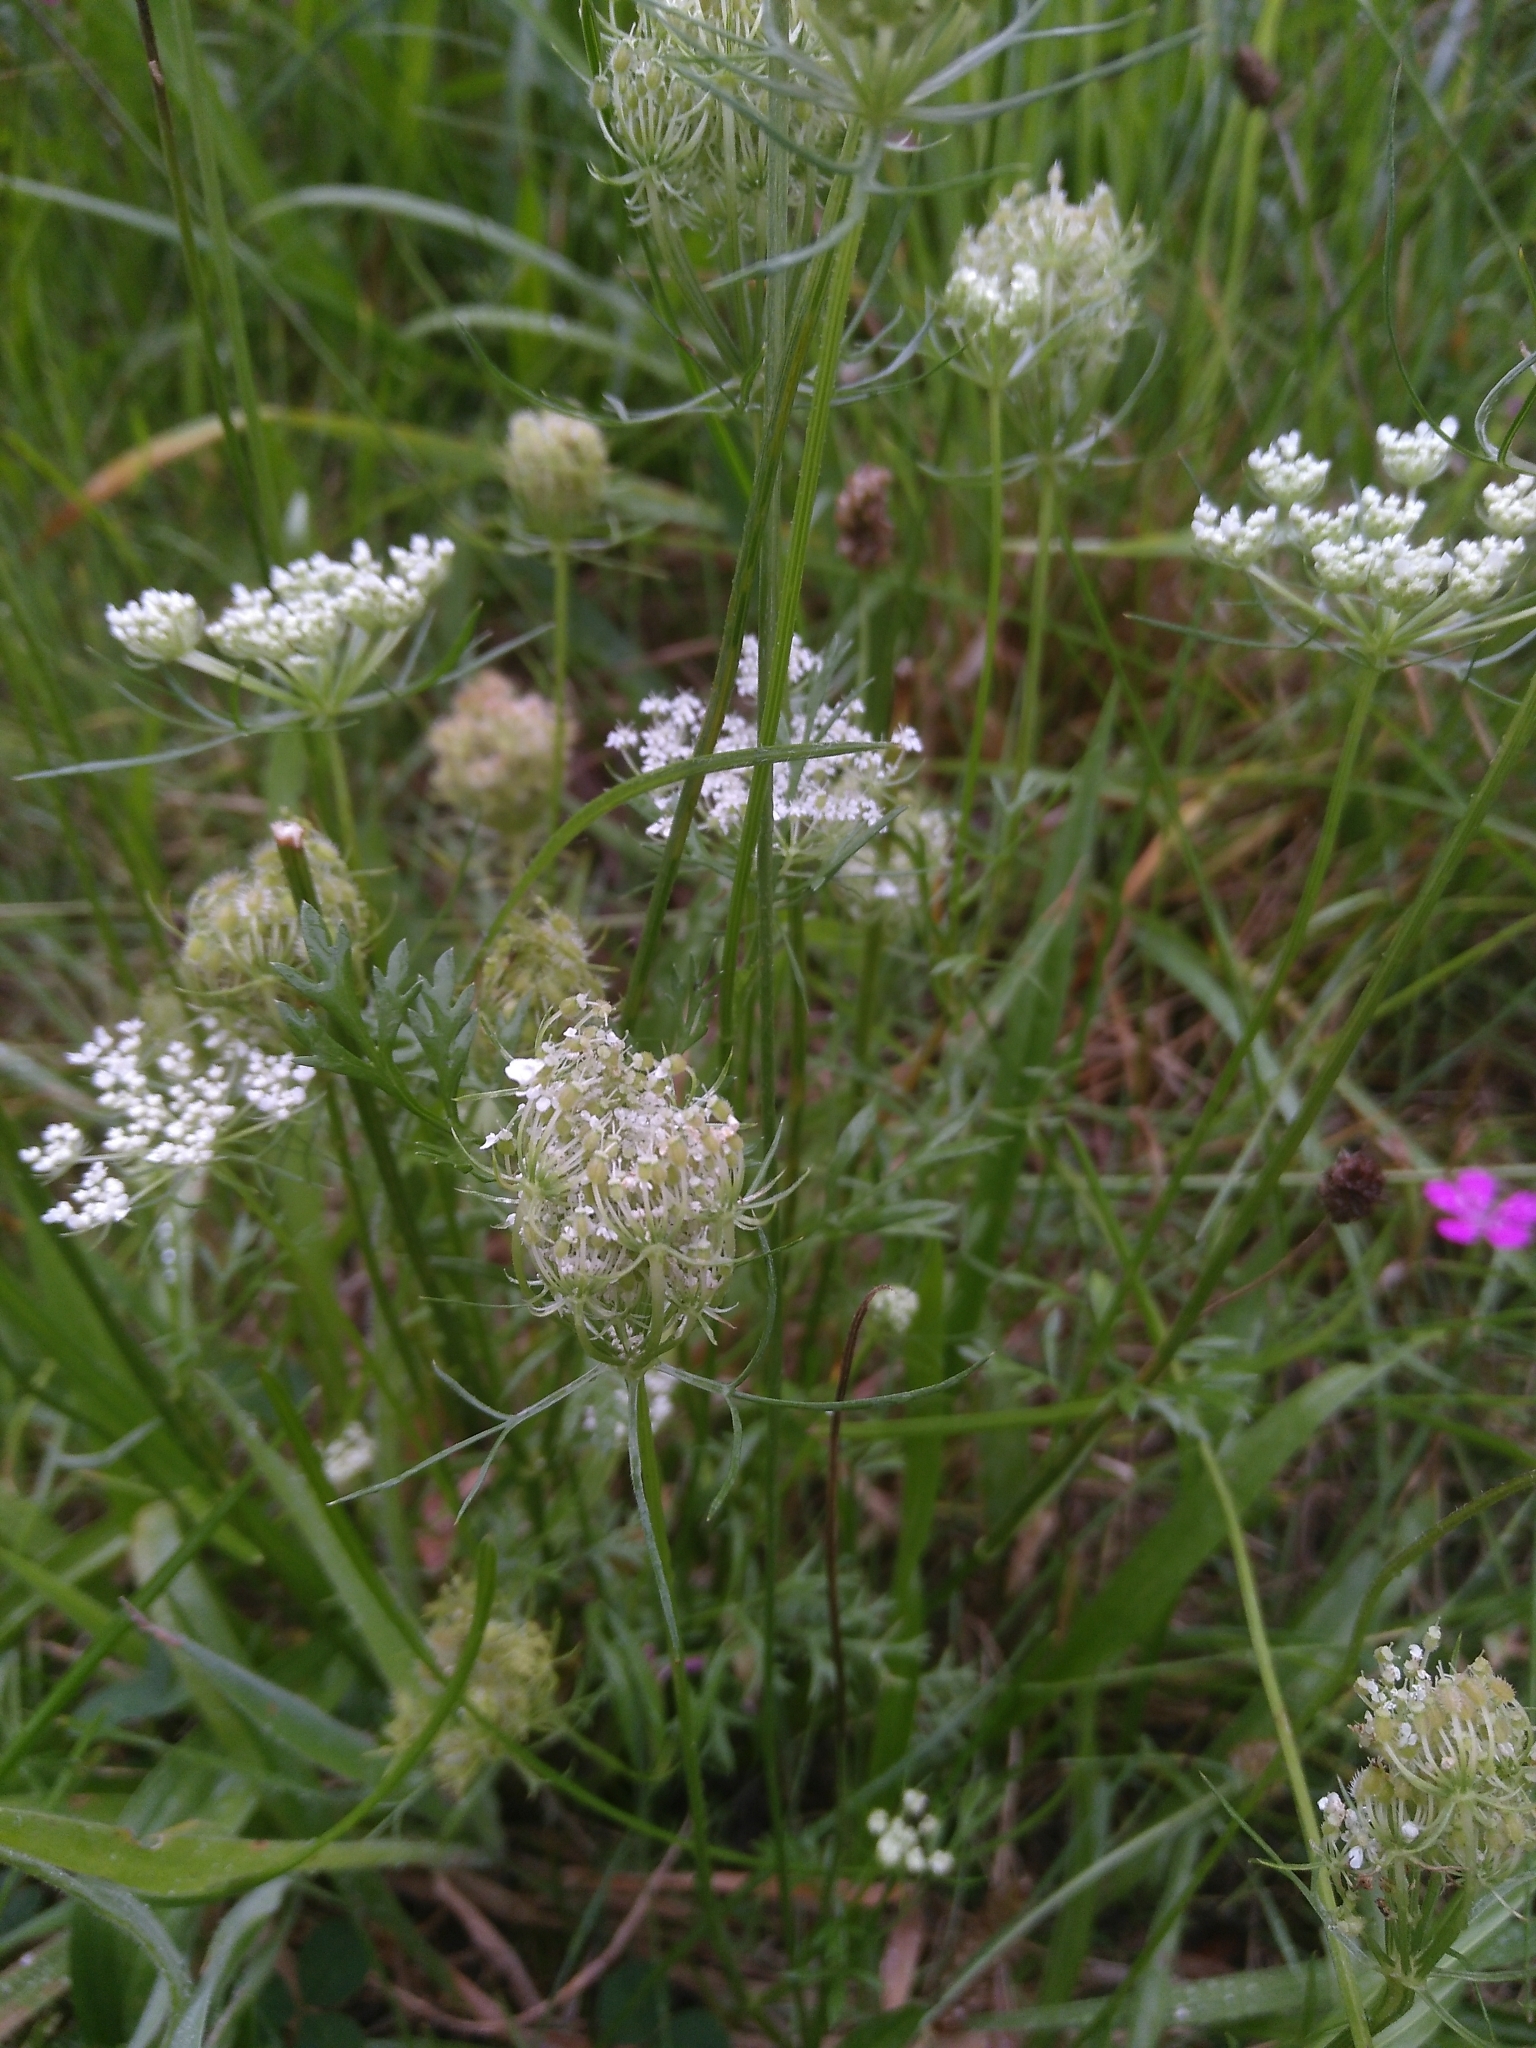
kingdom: Plantae
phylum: Tracheophyta
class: Magnoliopsida
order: Apiales
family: Apiaceae
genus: Daucus
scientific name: Daucus carota
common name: Wild carrot
